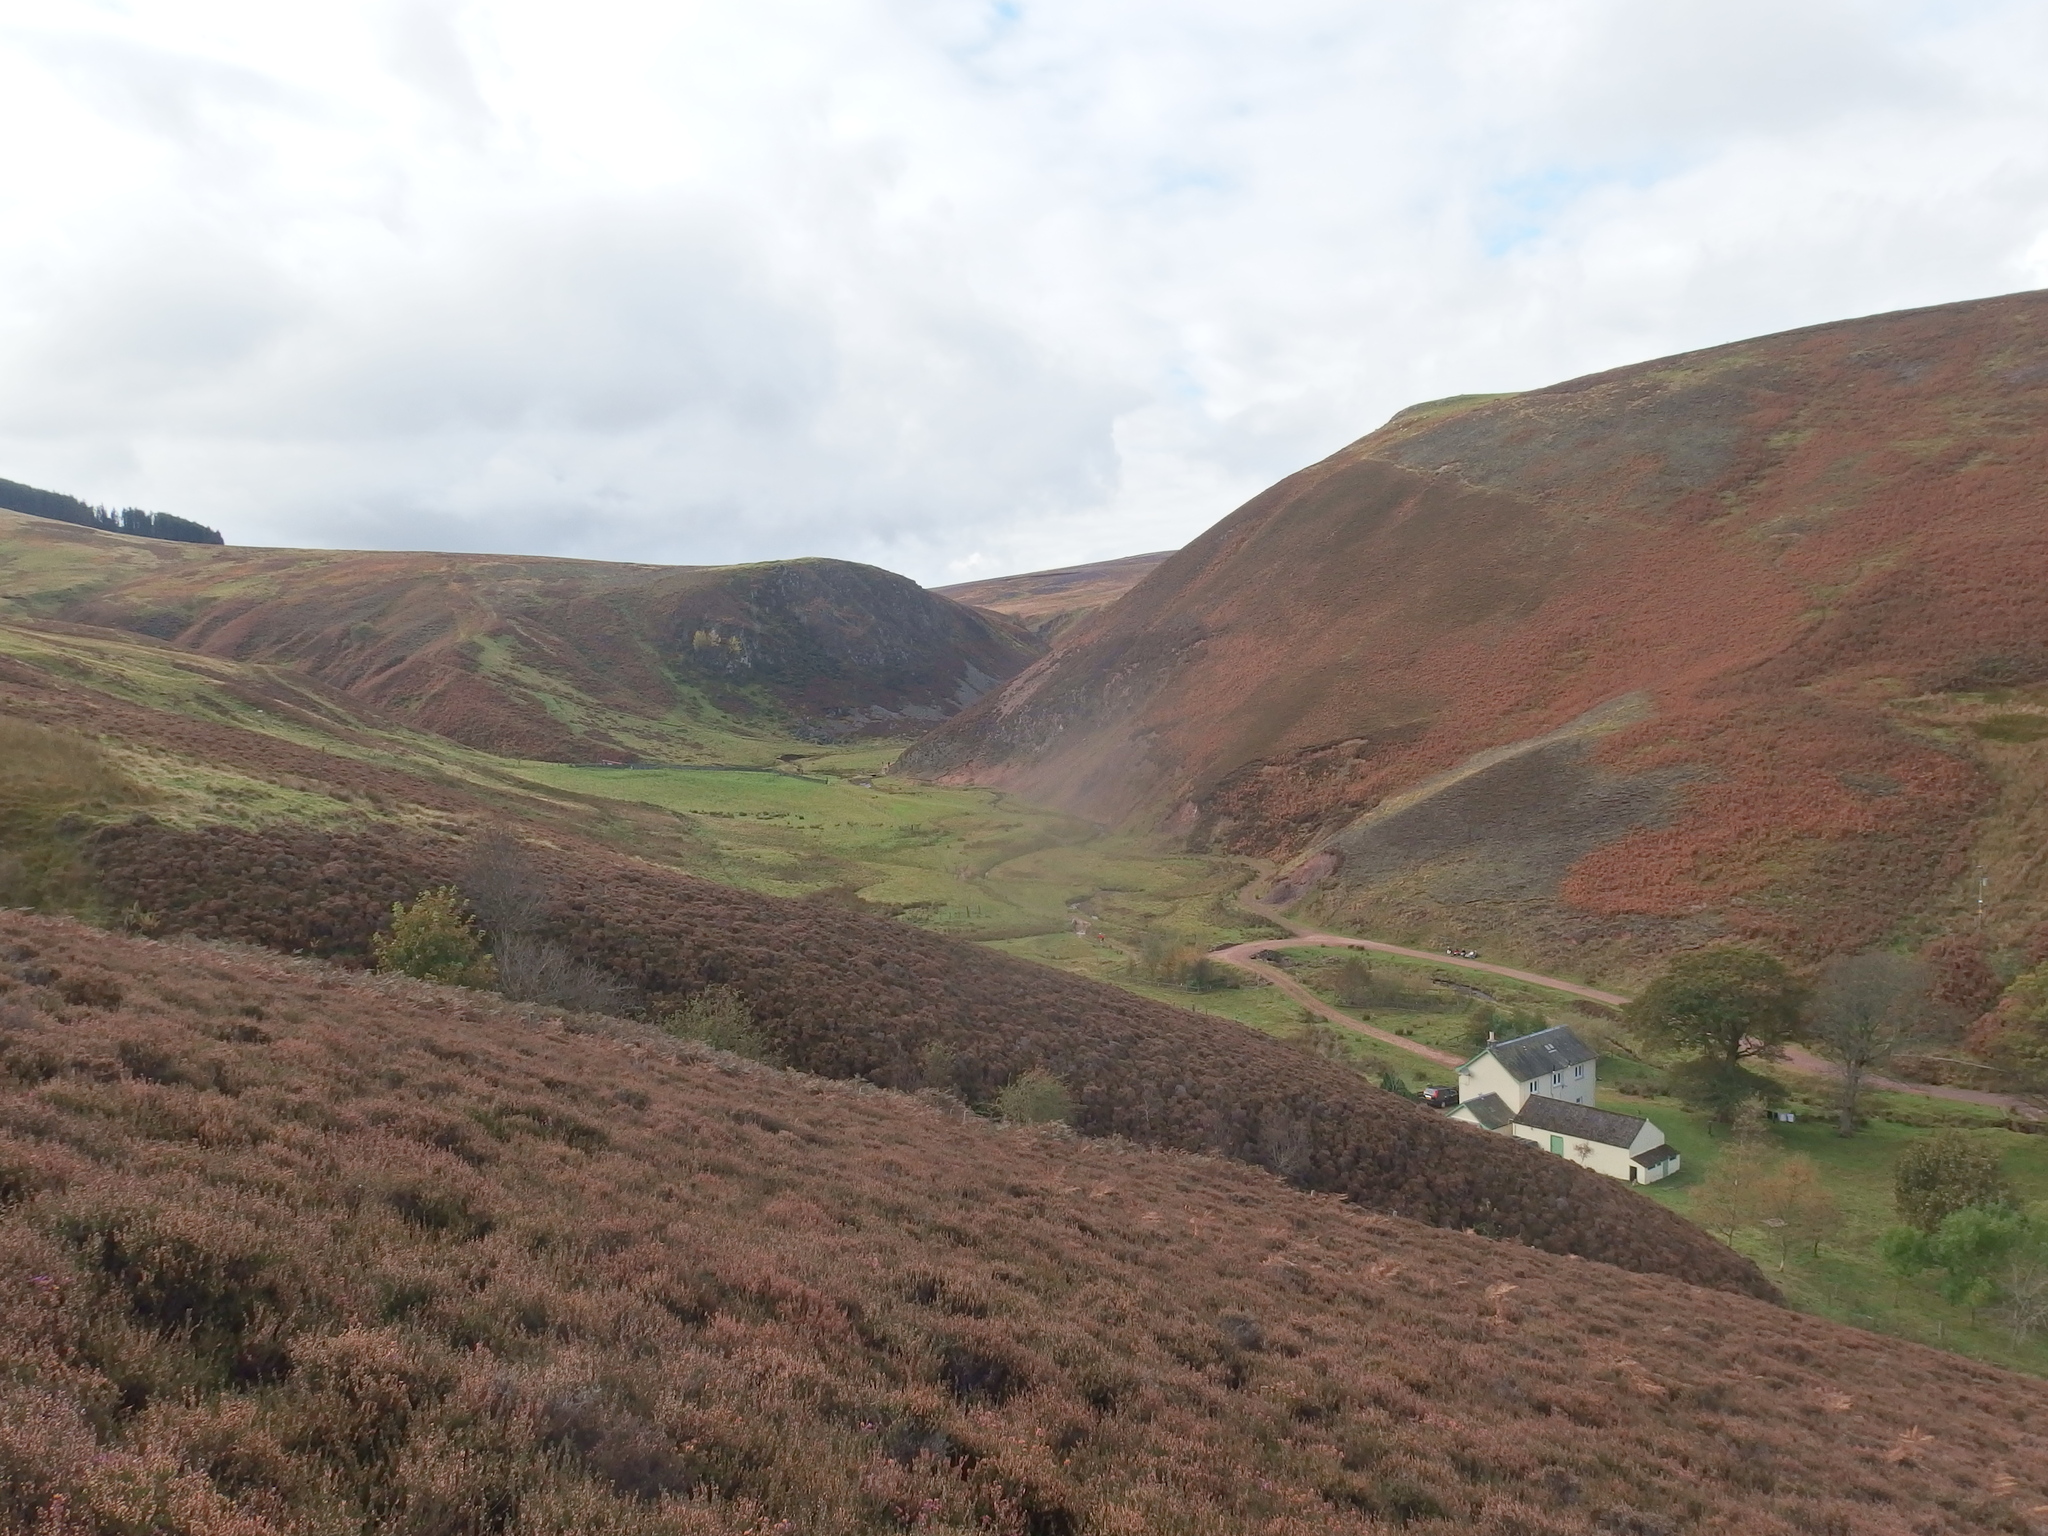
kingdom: Plantae
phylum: Tracheophyta
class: Magnoliopsida
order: Ericales
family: Ericaceae
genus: Calluna
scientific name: Calluna vulgaris
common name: Heather
